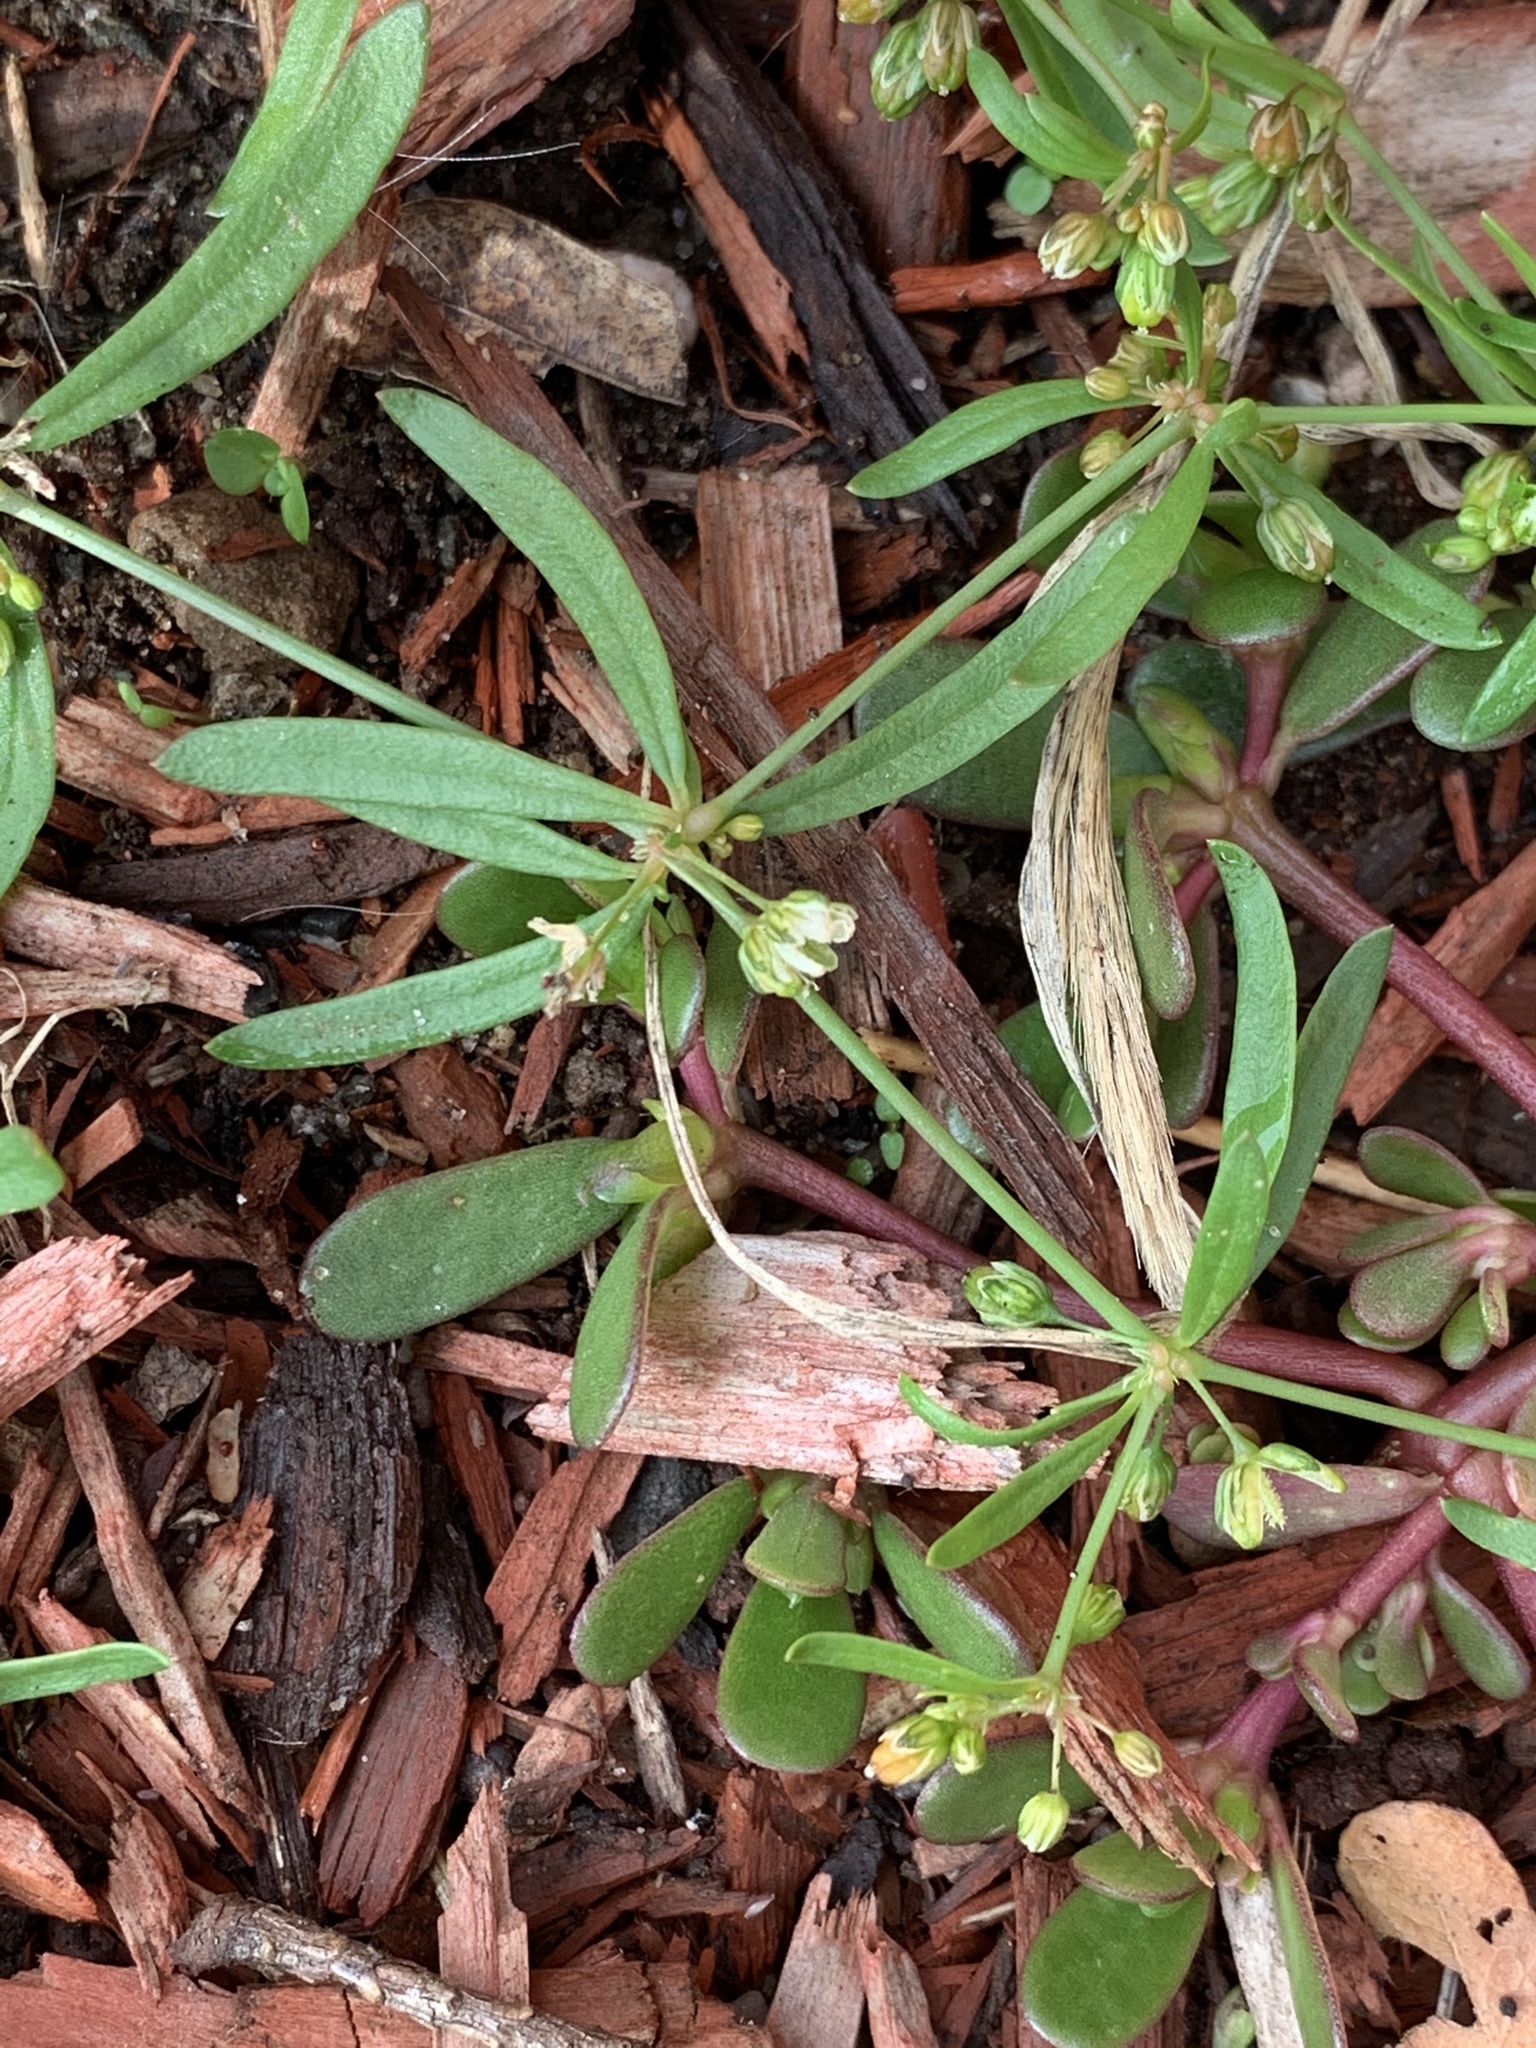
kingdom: Plantae
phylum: Tracheophyta
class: Magnoliopsida
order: Caryophyllales
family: Molluginaceae
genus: Mollugo
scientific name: Mollugo verticillata
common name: Green carpetweed
